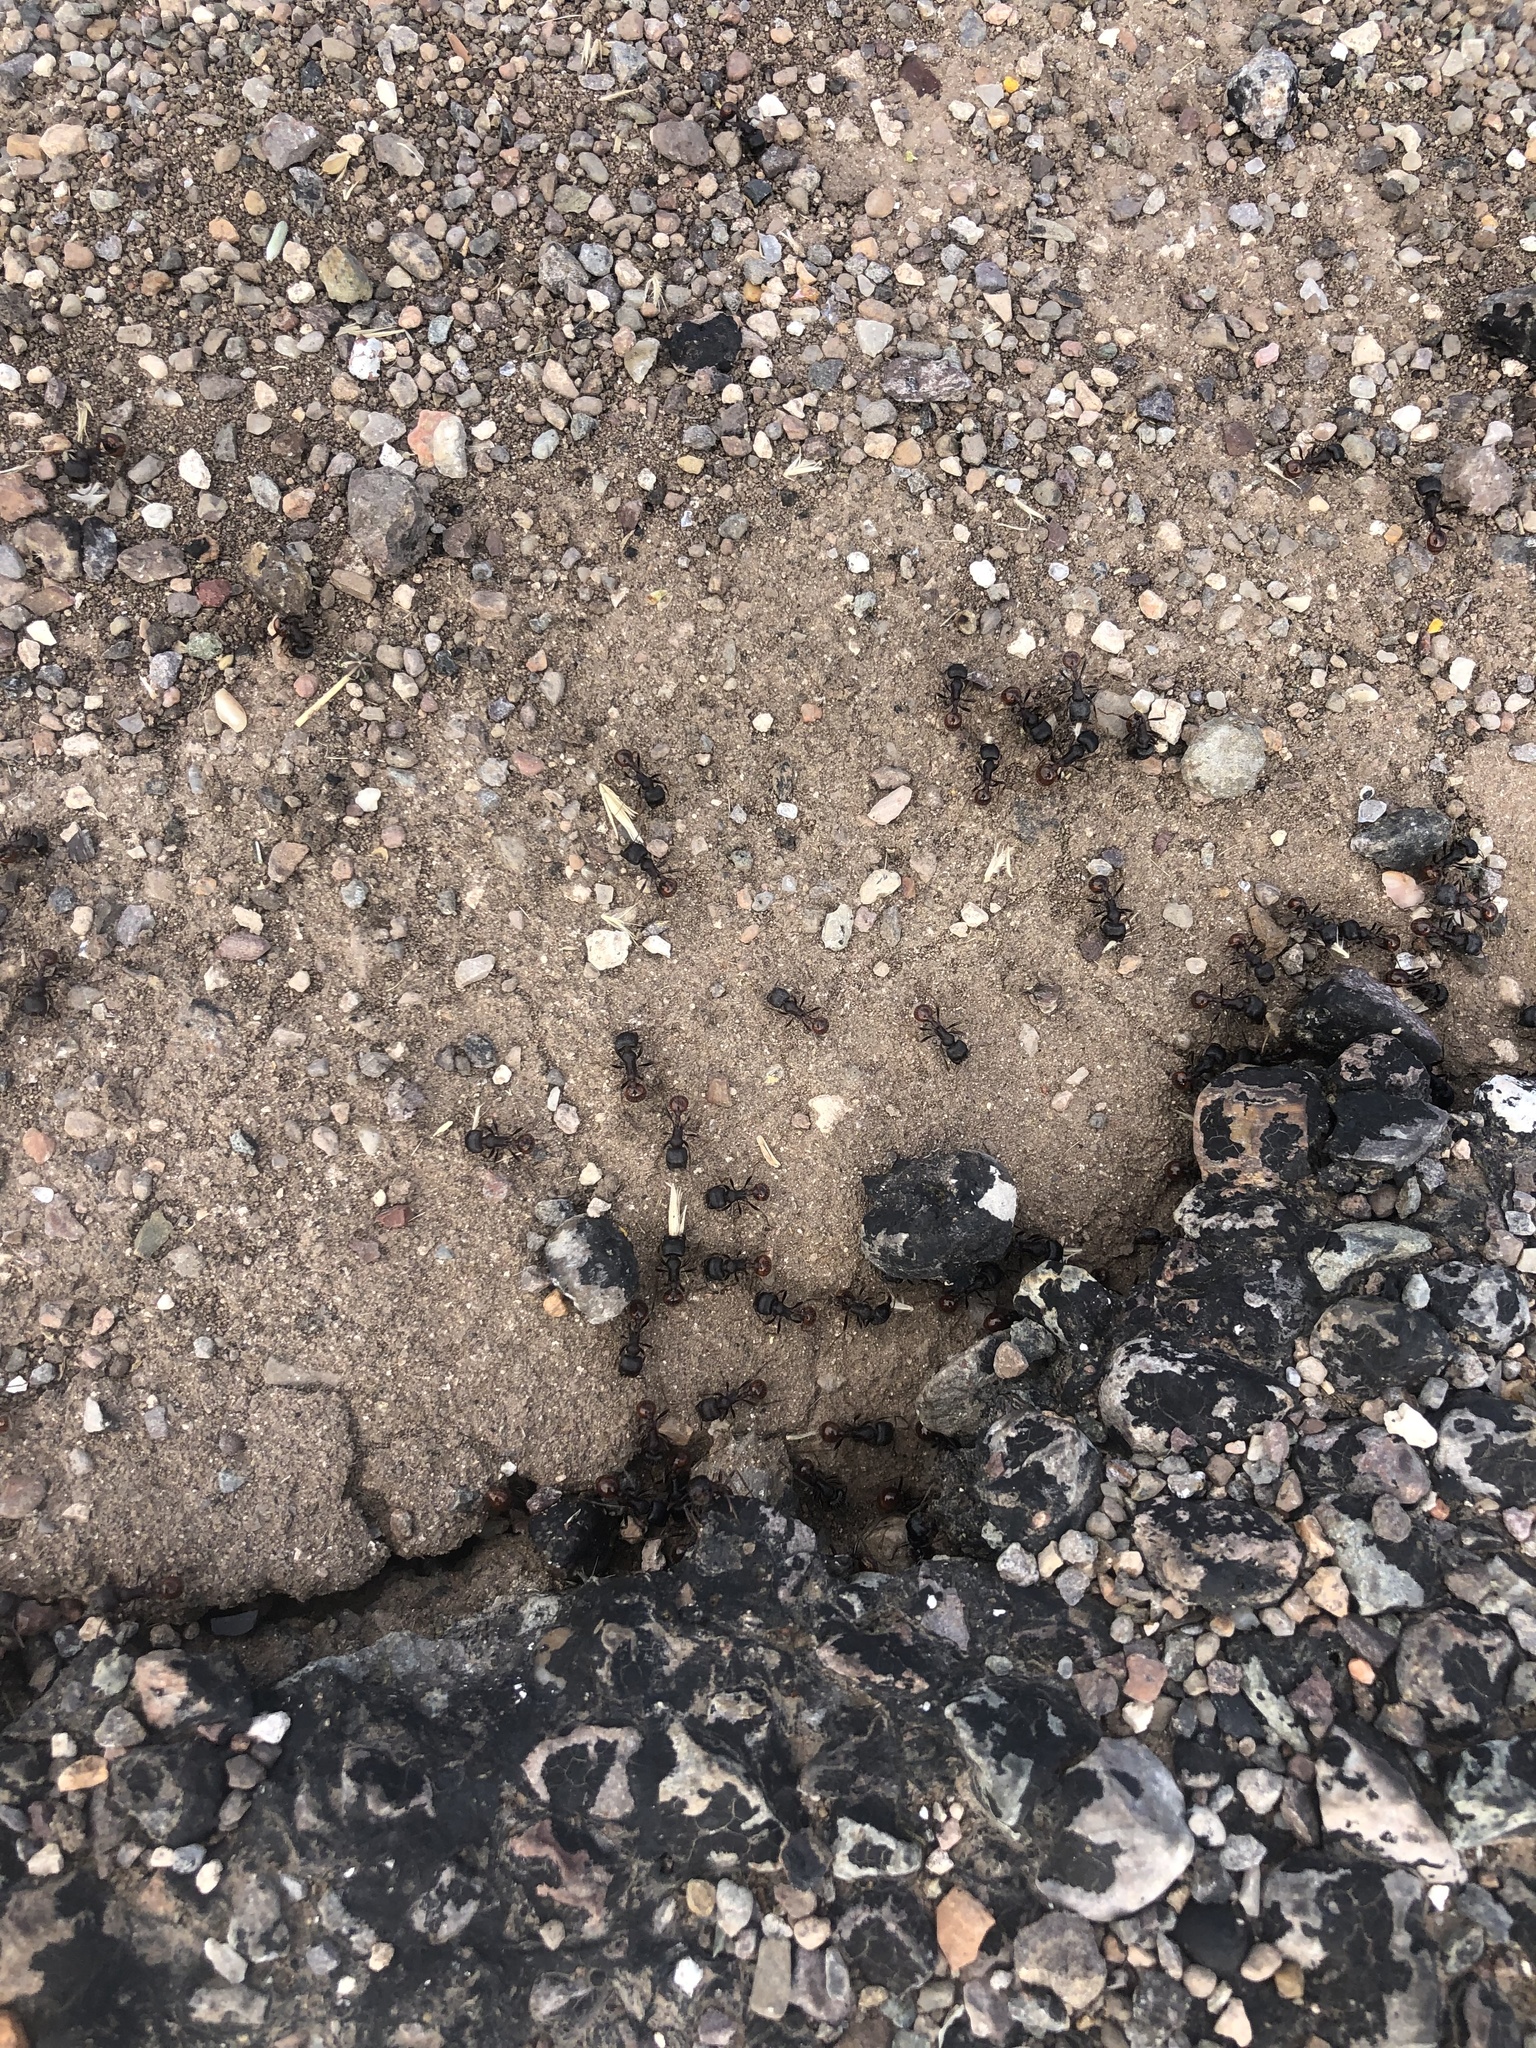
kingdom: Animalia
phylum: Arthropoda
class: Insecta
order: Hymenoptera
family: Formicidae
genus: Pogonomyrmex
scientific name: Pogonomyrmex rugosus
